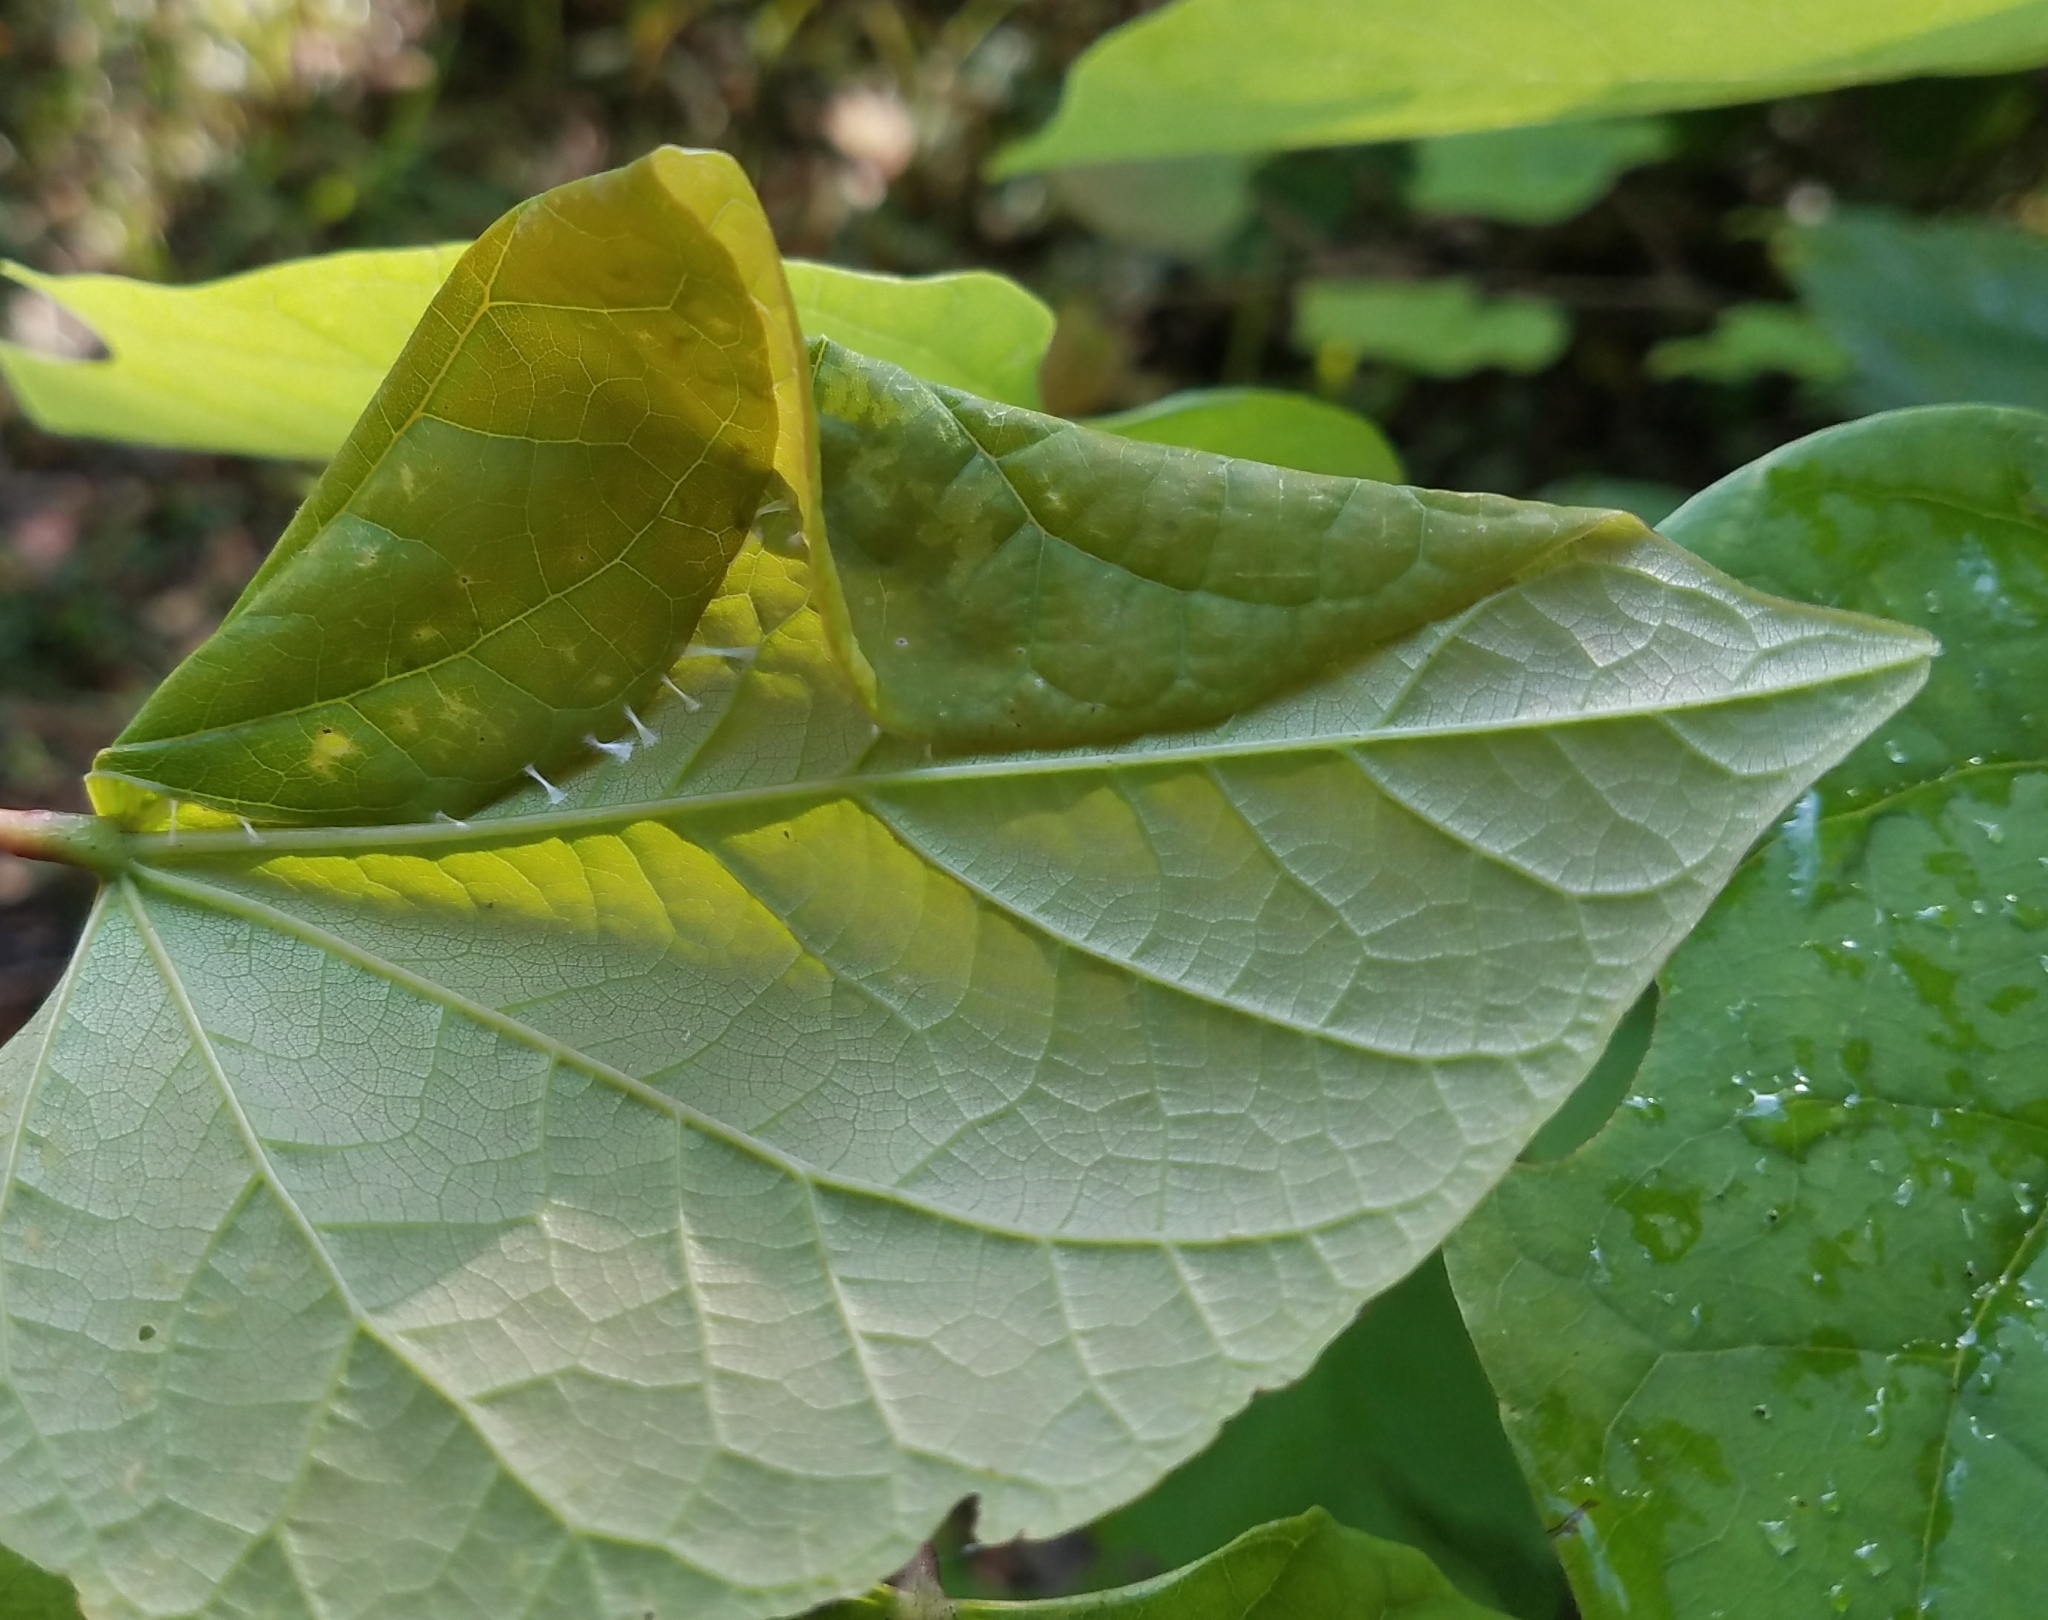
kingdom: Animalia
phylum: Arthropoda
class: Insecta
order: Lepidoptera
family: Gelechiidae
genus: Fascista
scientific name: Fascista cercerisella
